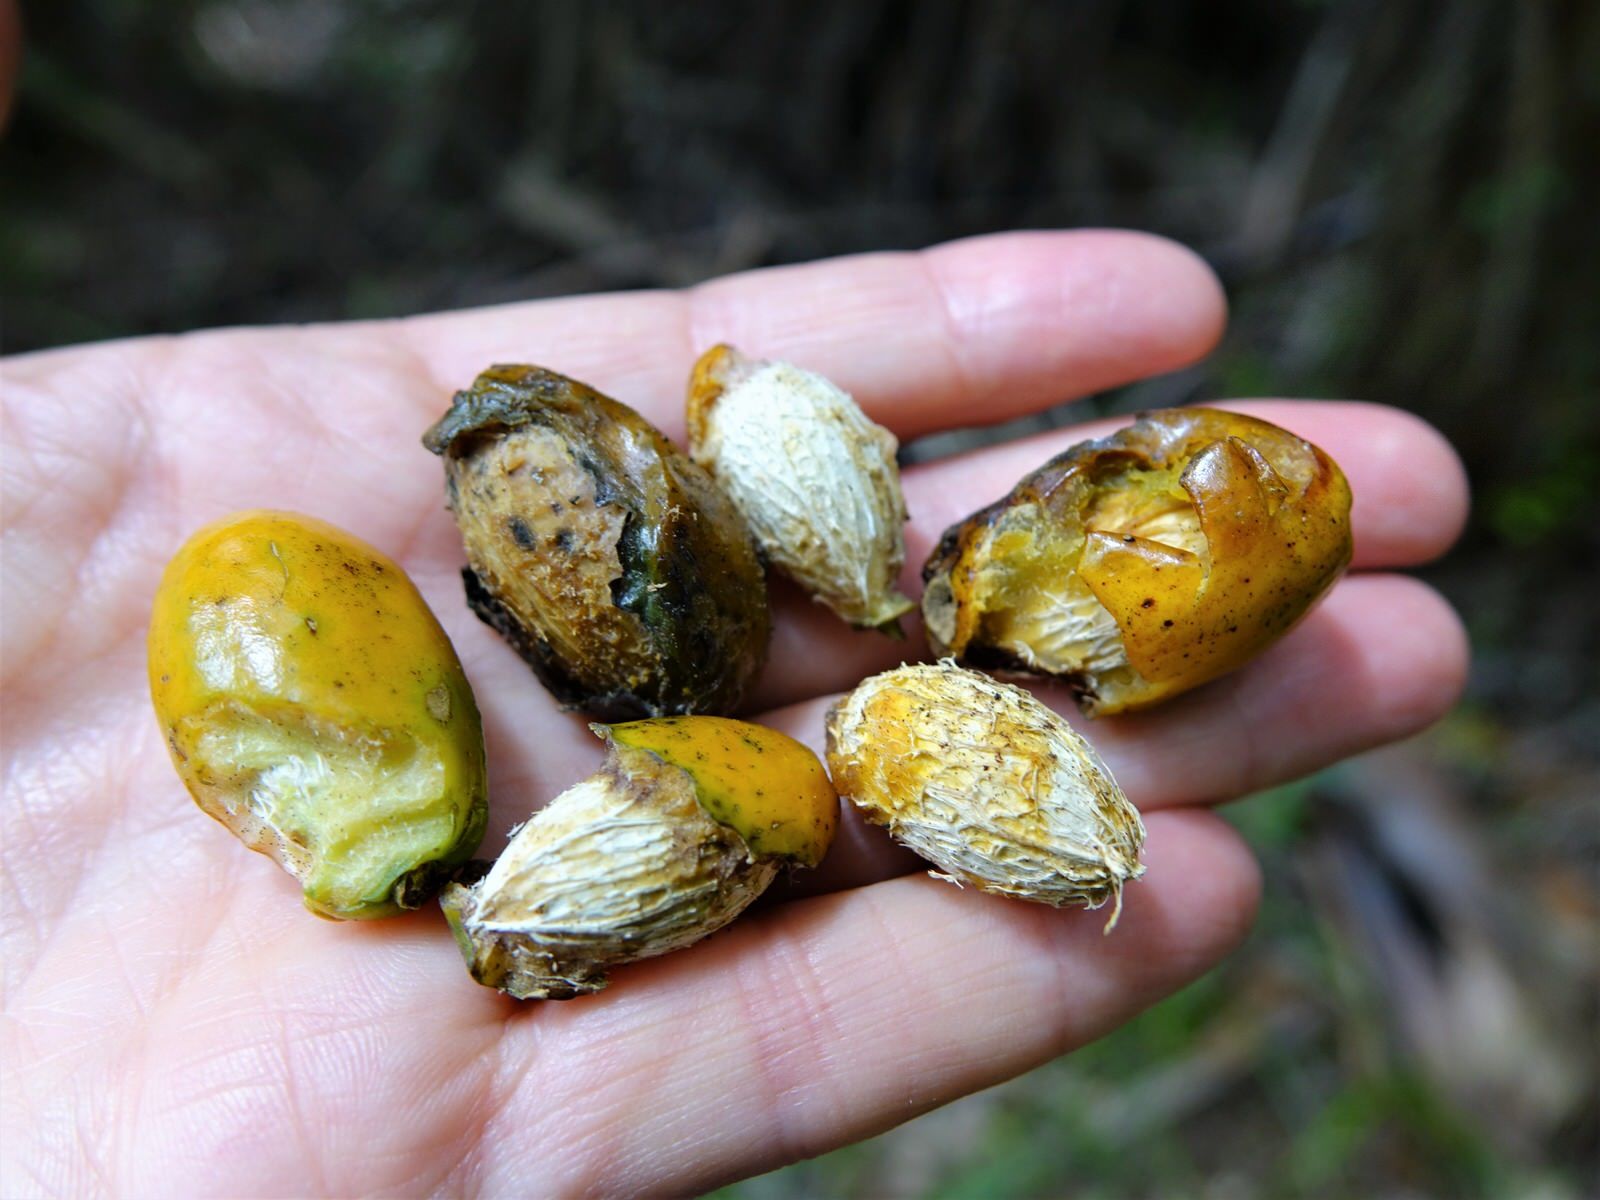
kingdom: Plantae
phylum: Tracheophyta
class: Magnoliopsida
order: Cucurbitales
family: Corynocarpaceae
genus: Corynocarpus
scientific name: Corynocarpus laevigatus
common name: New zealand laurel
